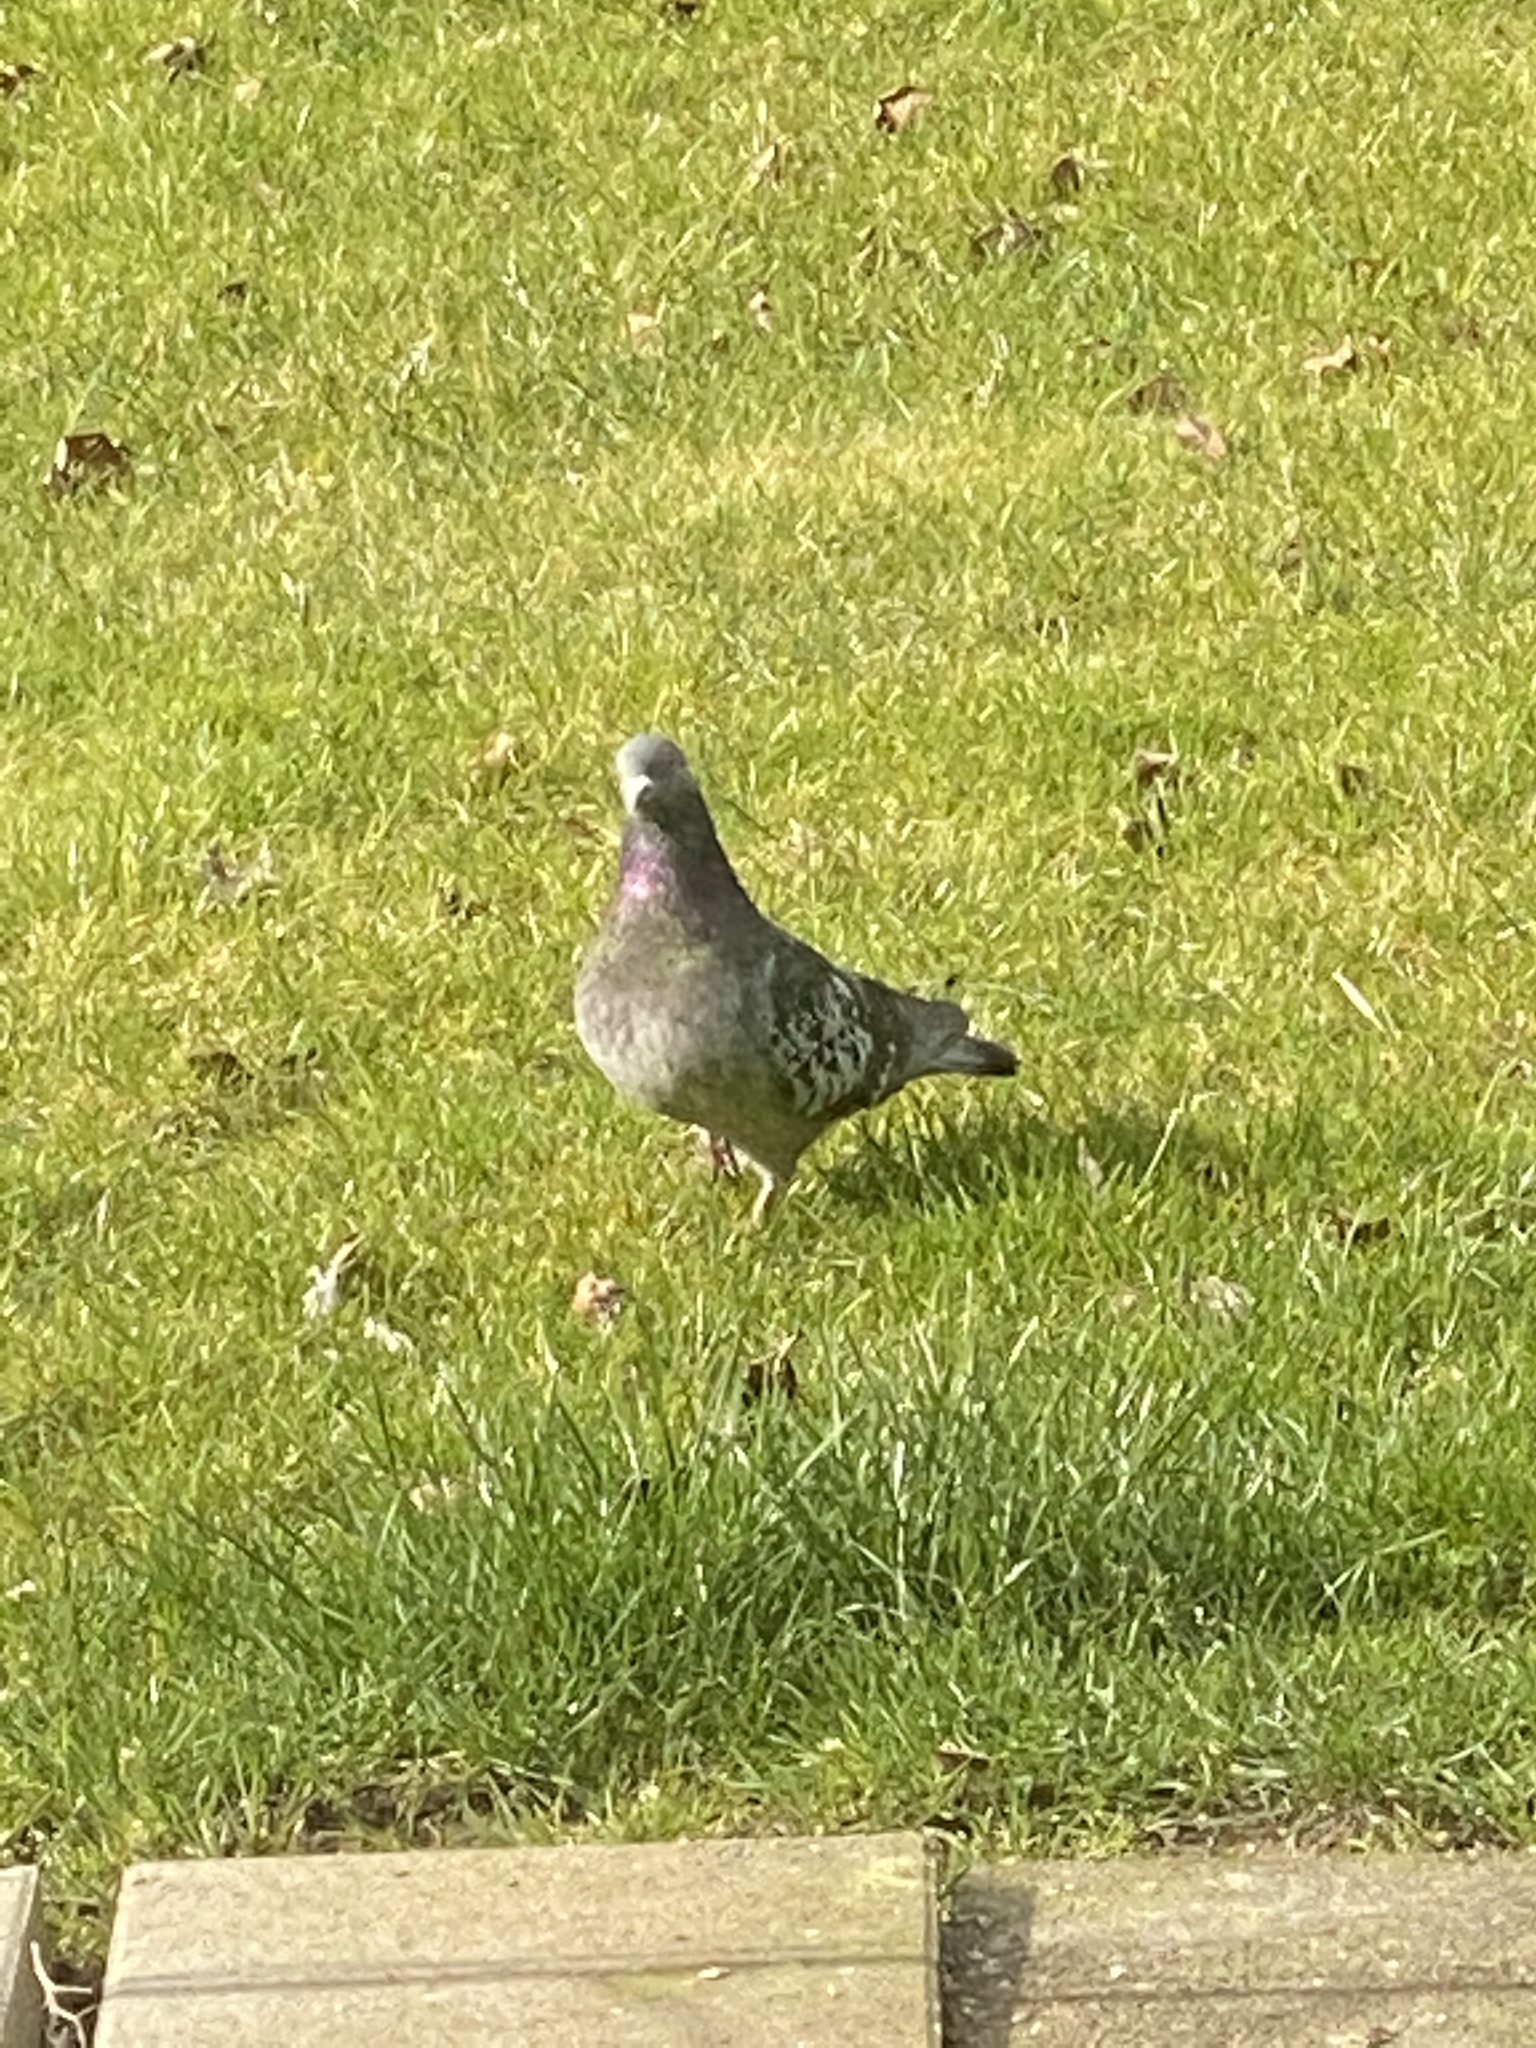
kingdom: Animalia
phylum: Chordata
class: Aves
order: Columbiformes
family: Columbidae
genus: Columba
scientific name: Columba livia
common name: Rock pigeon
